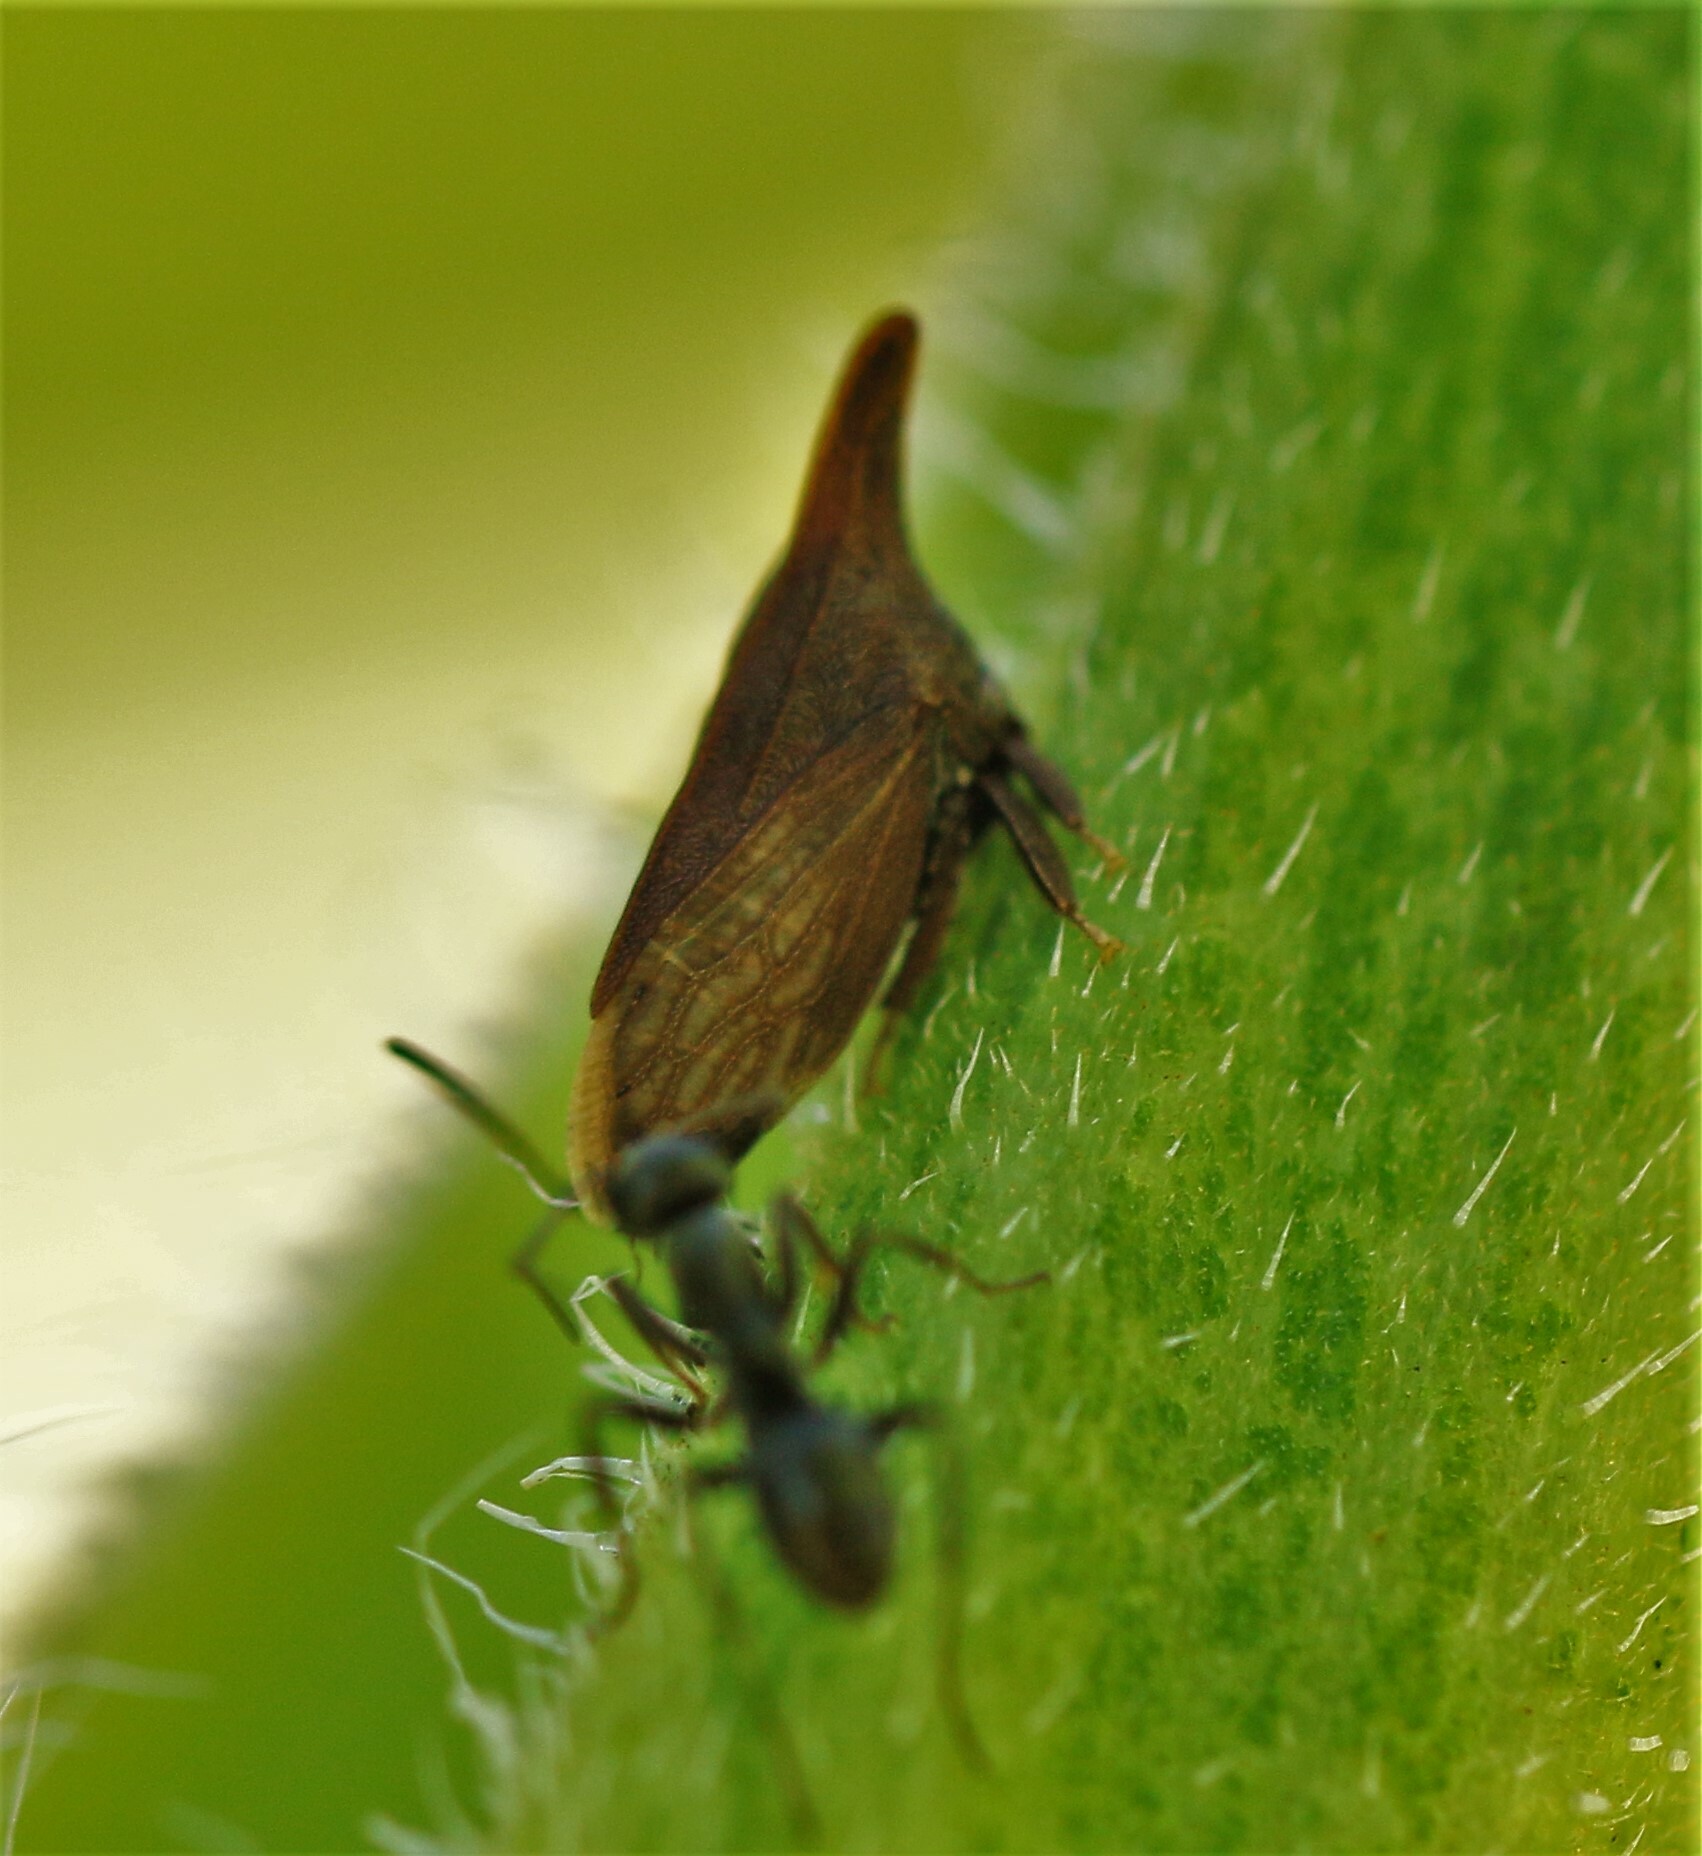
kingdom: Animalia
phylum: Arthropoda
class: Insecta
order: Hemiptera
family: Membracidae
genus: Enchenopa
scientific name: Enchenopa latipes
